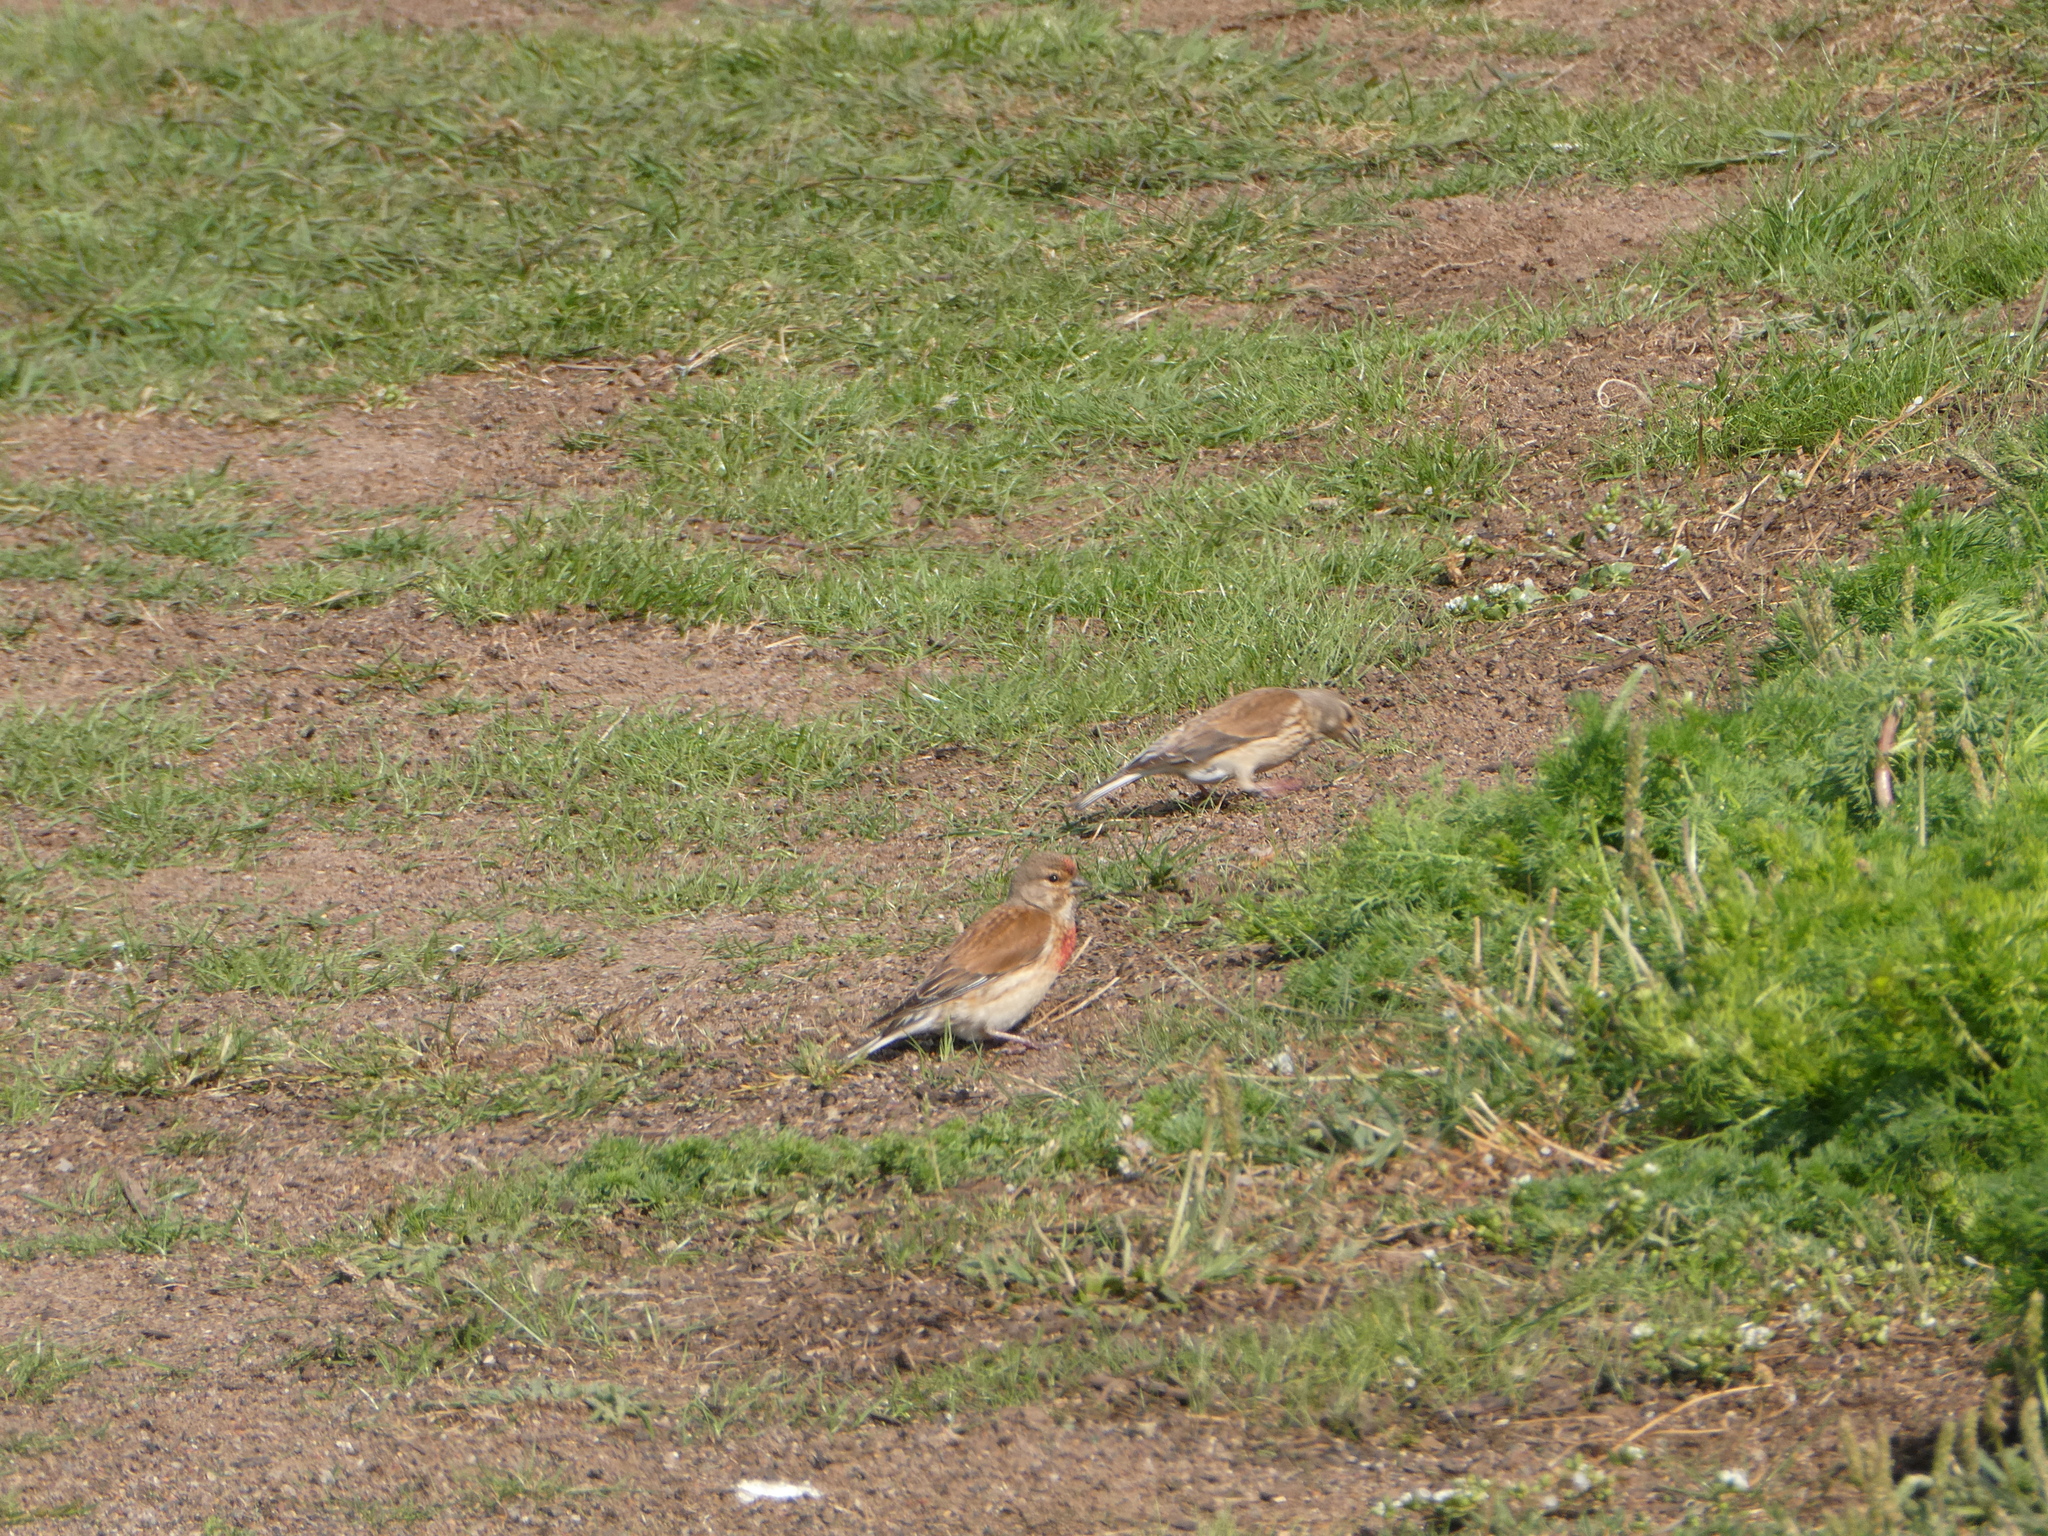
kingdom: Animalia
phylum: Chordata
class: Aves
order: Passeriformes
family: Fringillidae
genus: Linaria
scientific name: Linaria cannabina
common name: Common linnet
